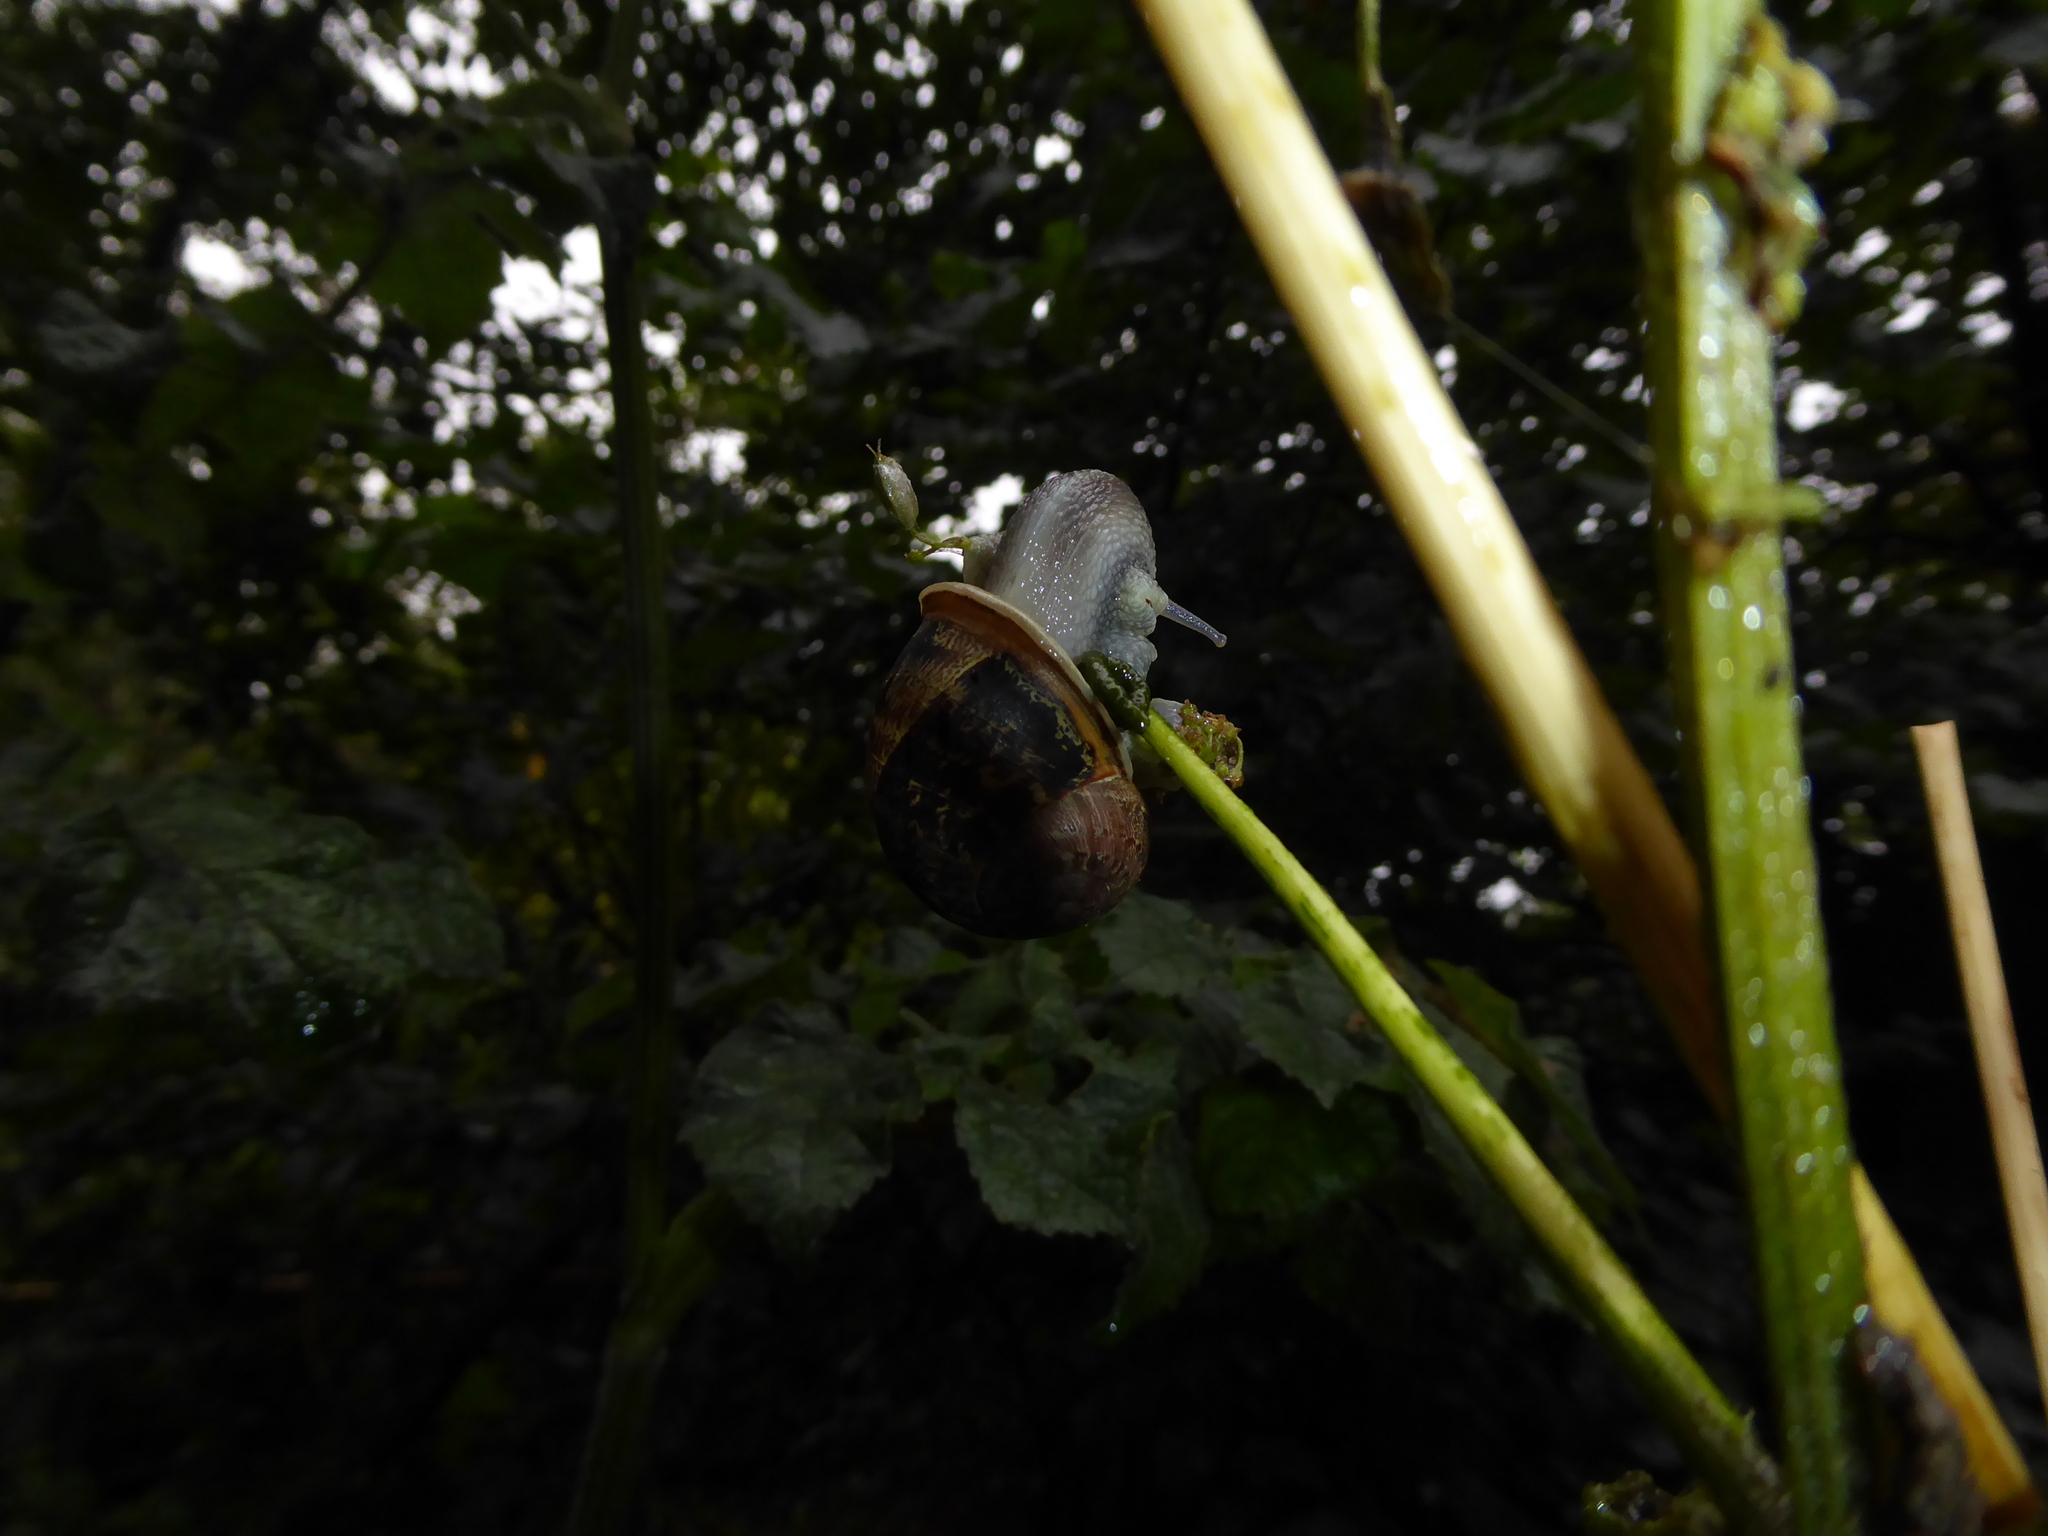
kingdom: Animalia
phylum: Mollusca
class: Gastropoda
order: Stylommatophora
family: Helicidae
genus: Cornu
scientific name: Cornu aspersum
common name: Brown garden snail
